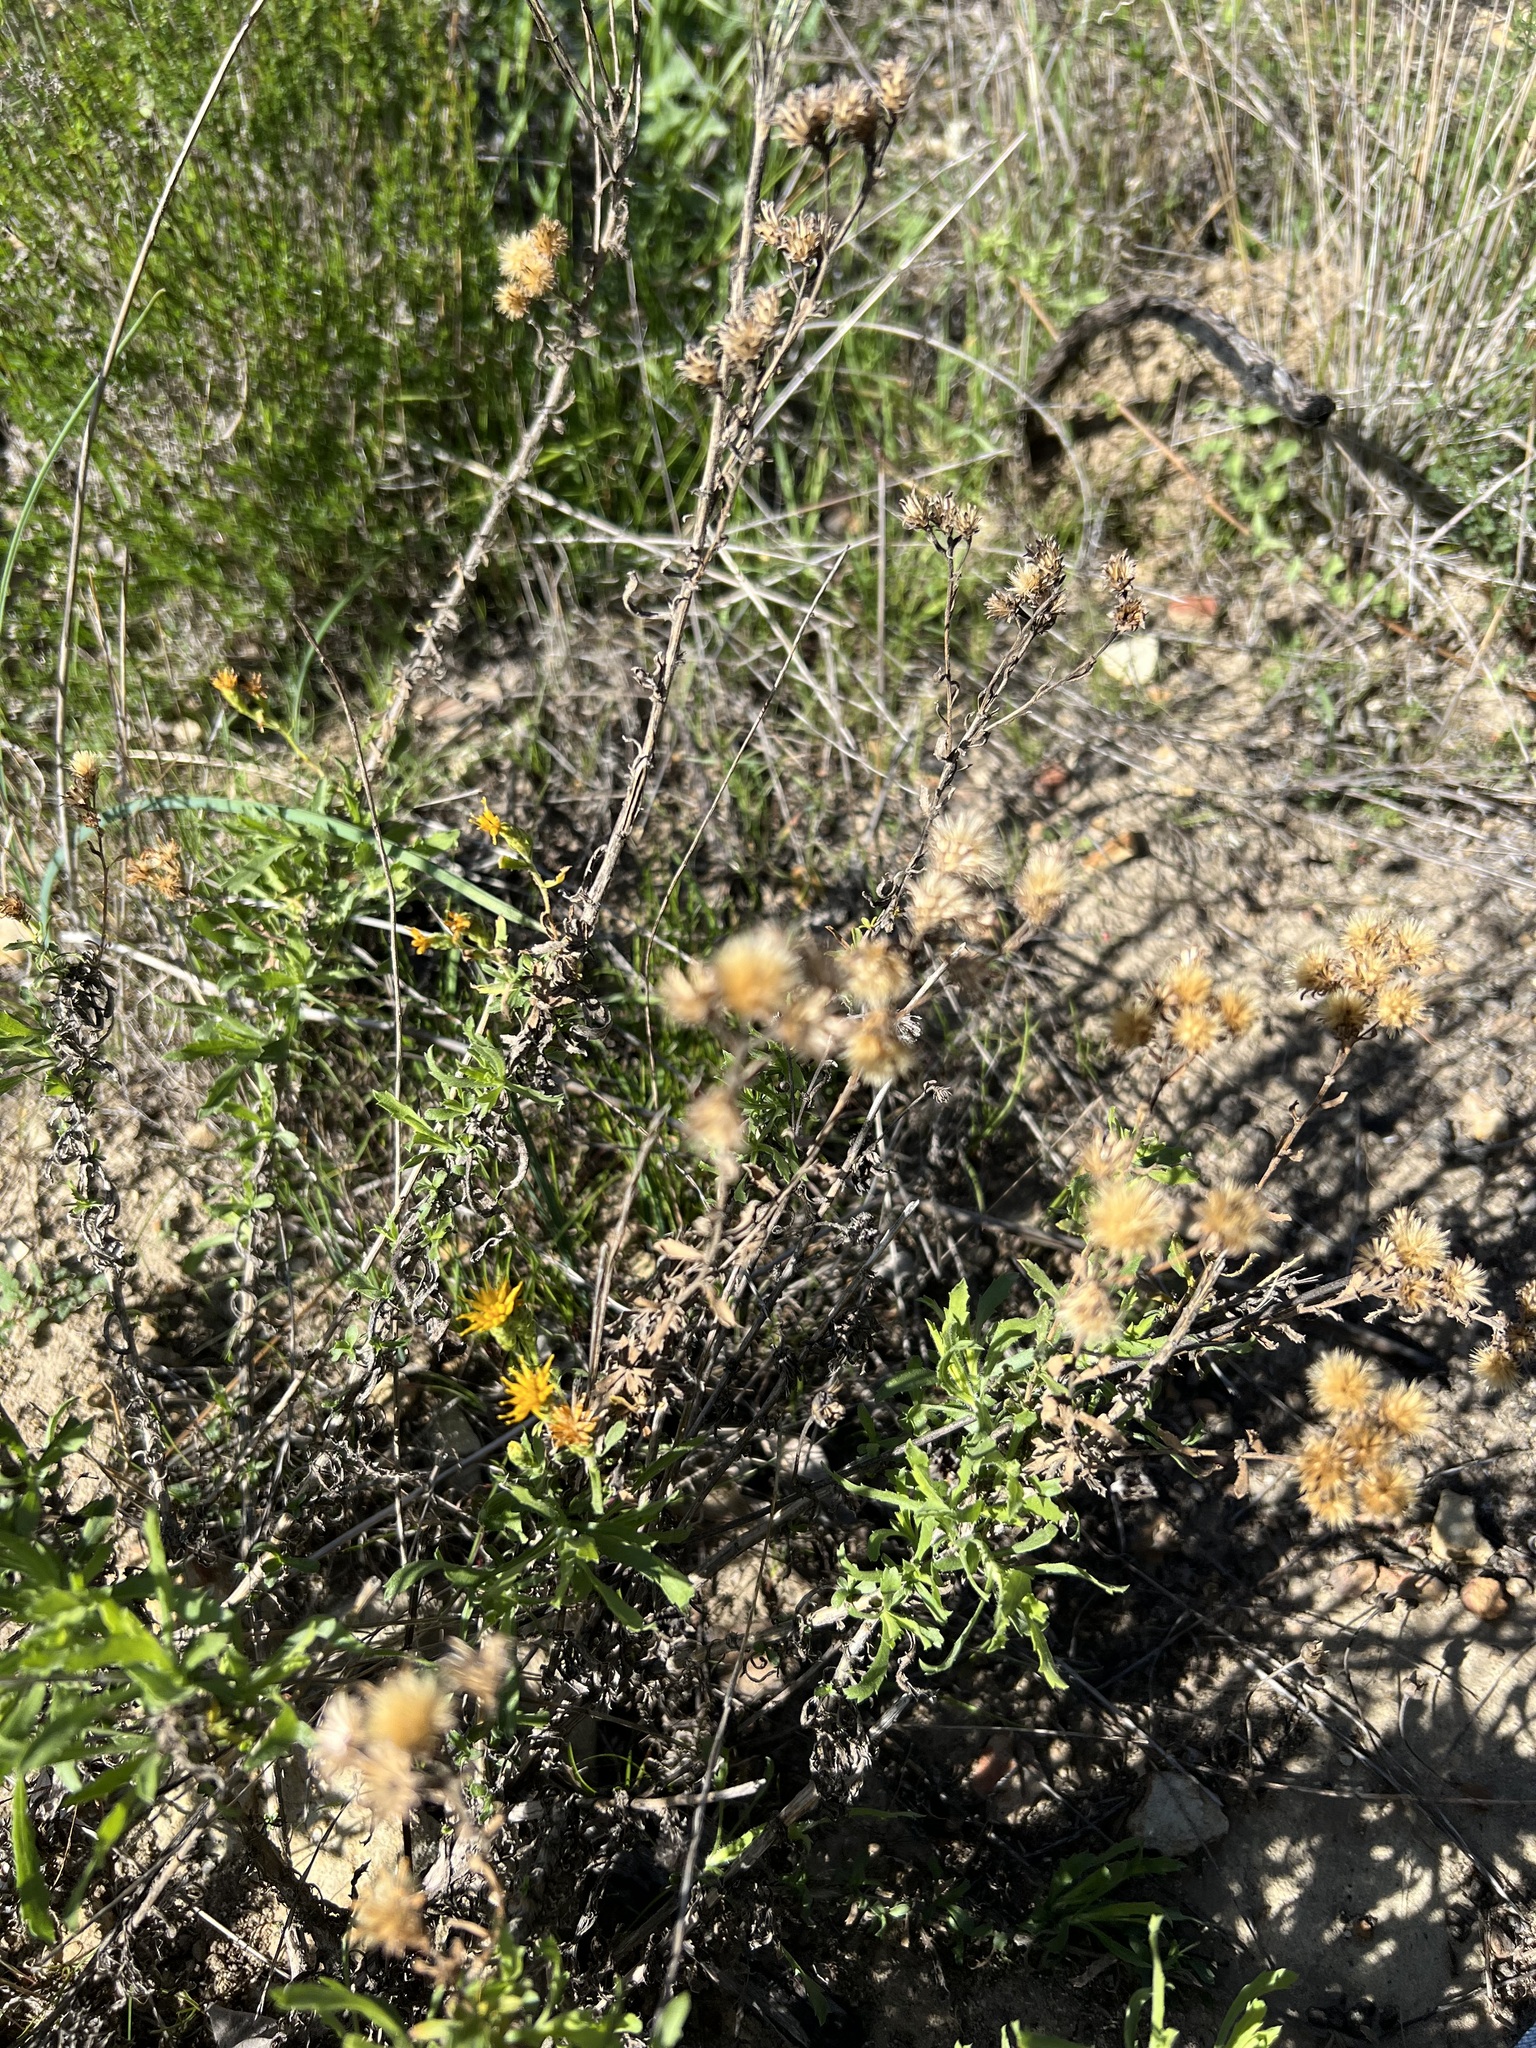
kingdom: Plantae
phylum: Tracheophyta
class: Magnoliopsida
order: Asterales
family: Asteraceae
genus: Isocoma
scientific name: Isocoma menziesii
